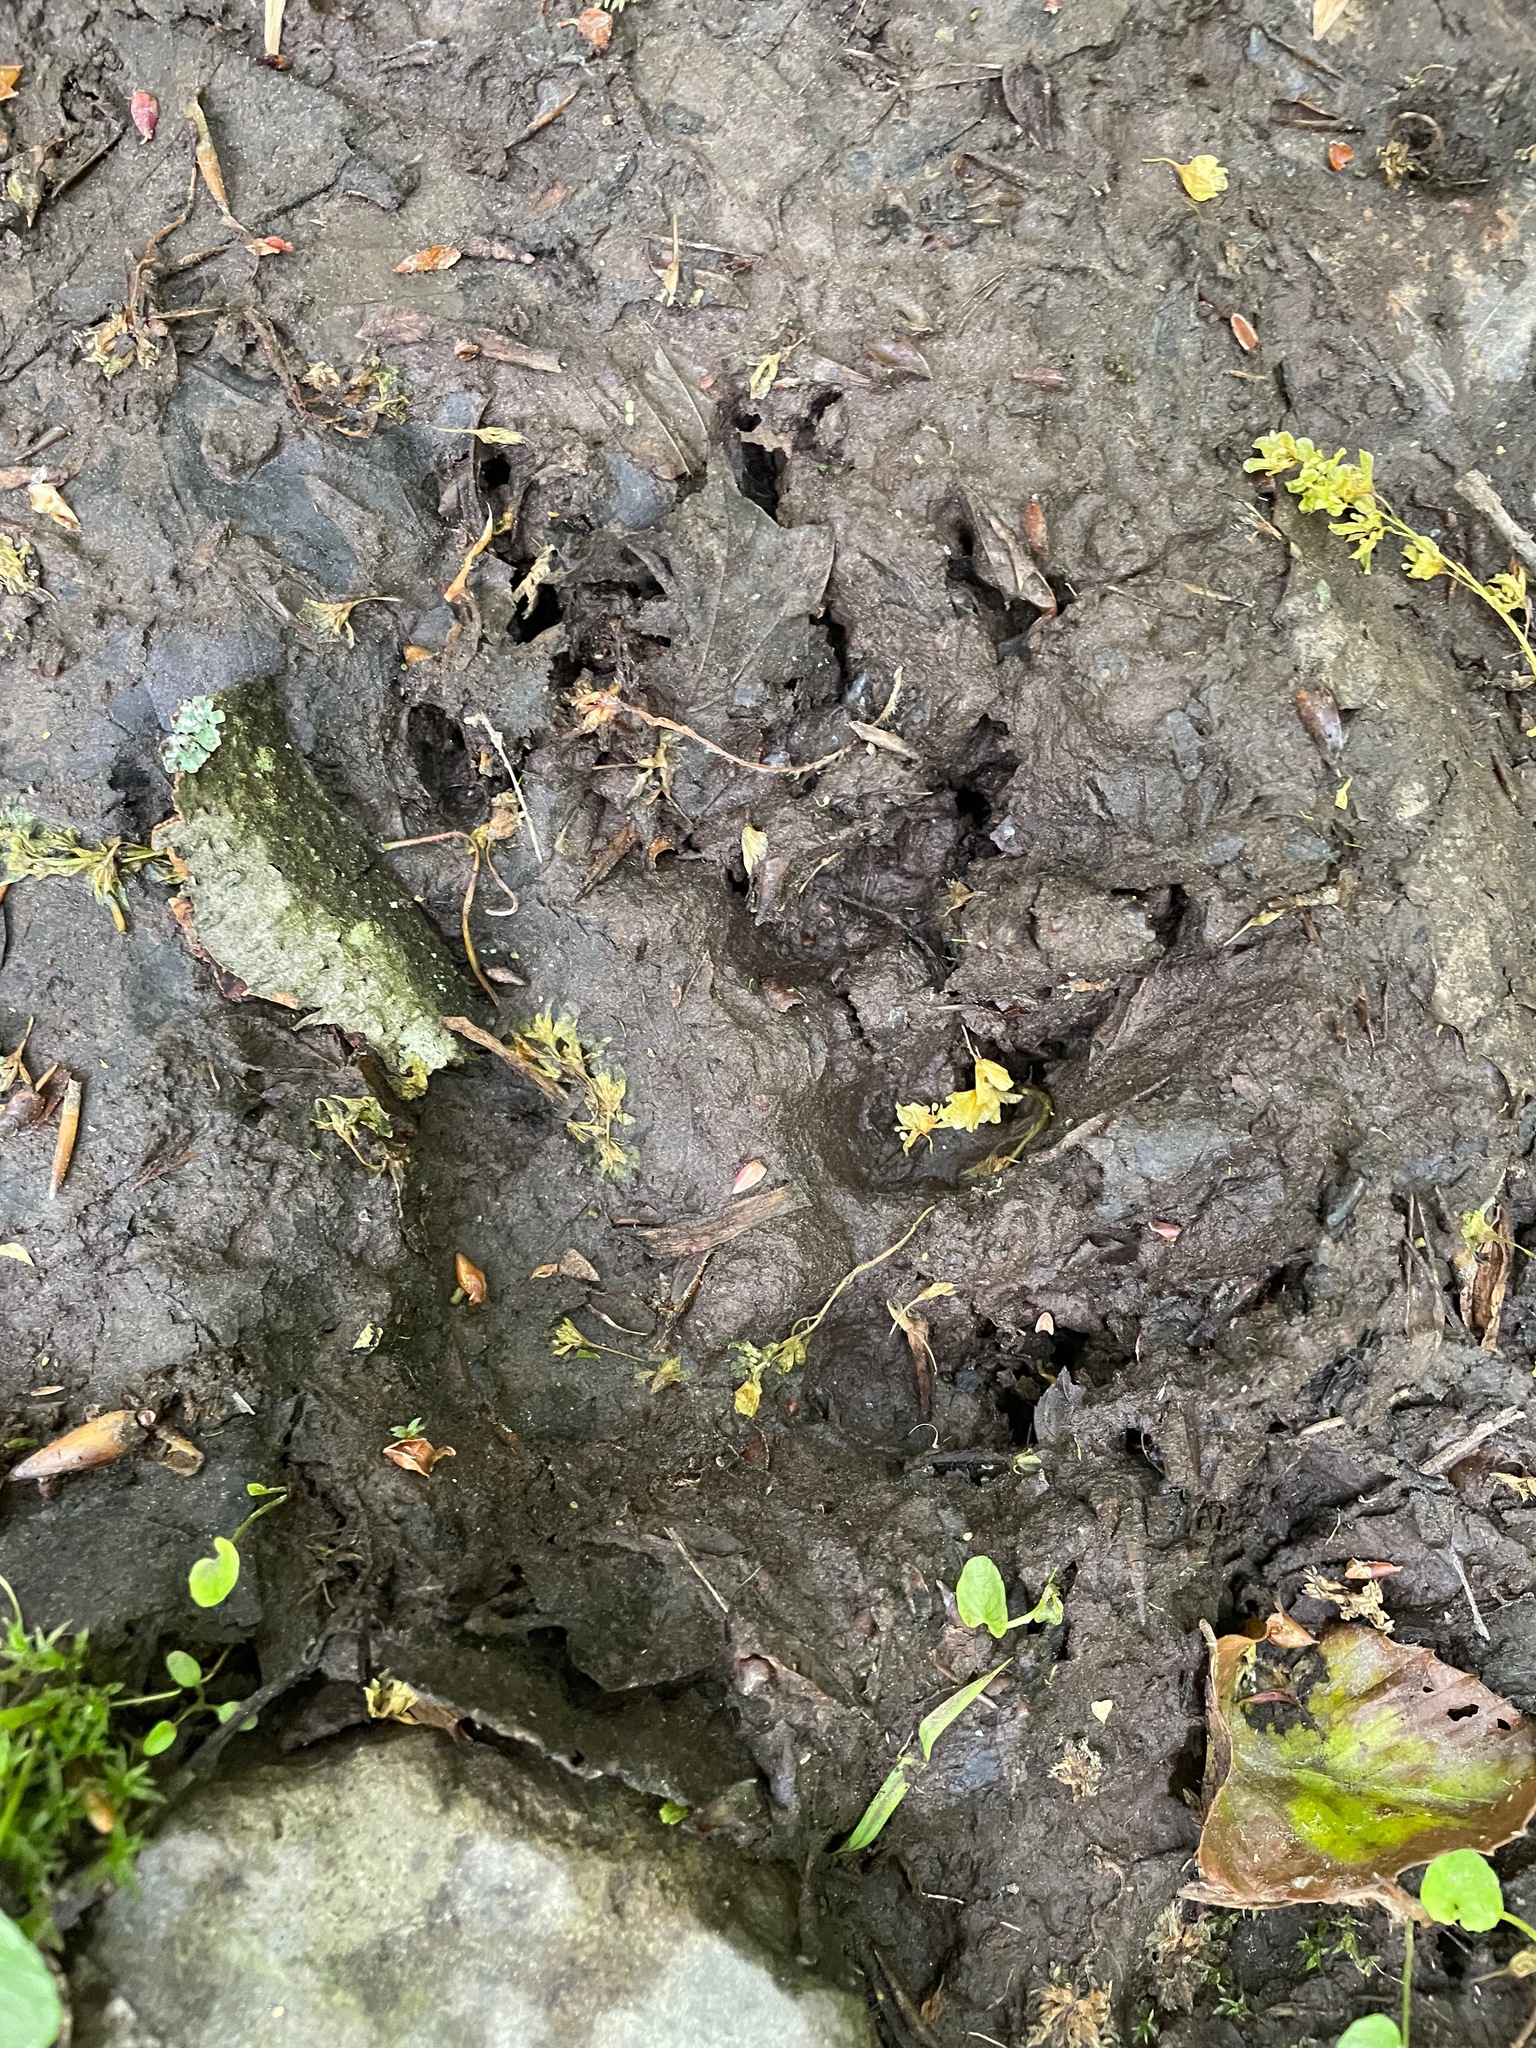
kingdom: Animalia
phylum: Chordata
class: Mammalia
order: Carnivora
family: Ursidae
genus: Ursus
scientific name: Ursus americanus
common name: American black bear
